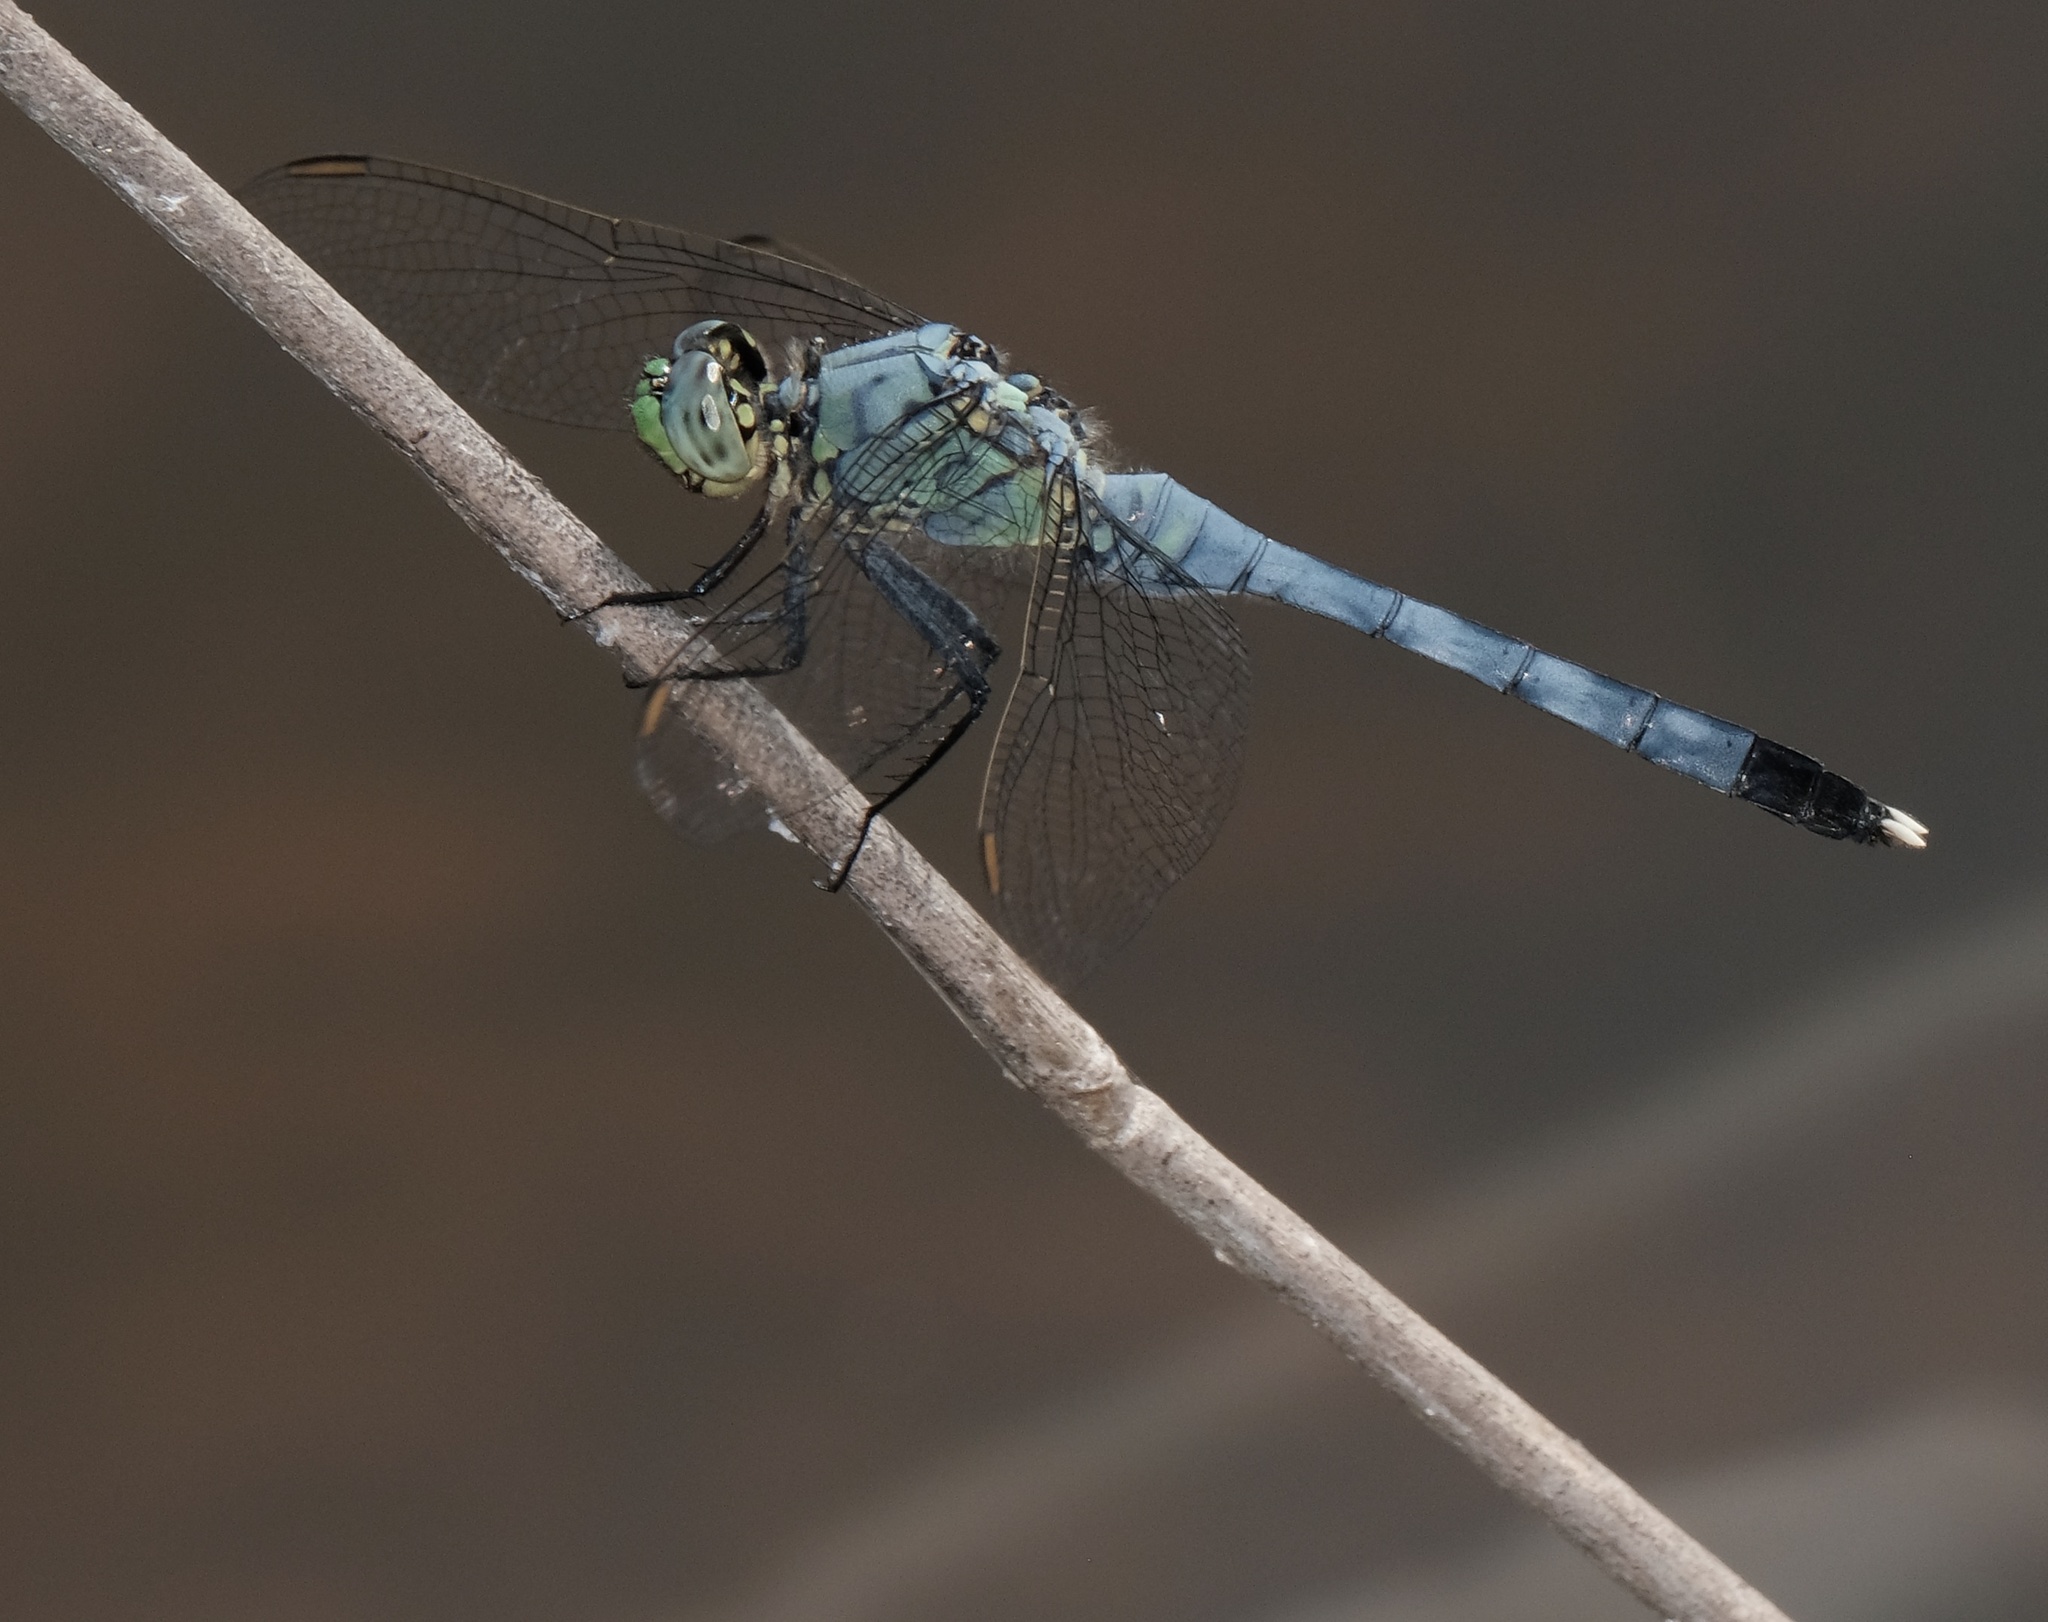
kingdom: Animalia
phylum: Arthropoda
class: Insecta
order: Odonata
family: Libellulidae
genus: Erythemis
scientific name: Erythemis simplicicollis
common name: Eastern pondhawk
